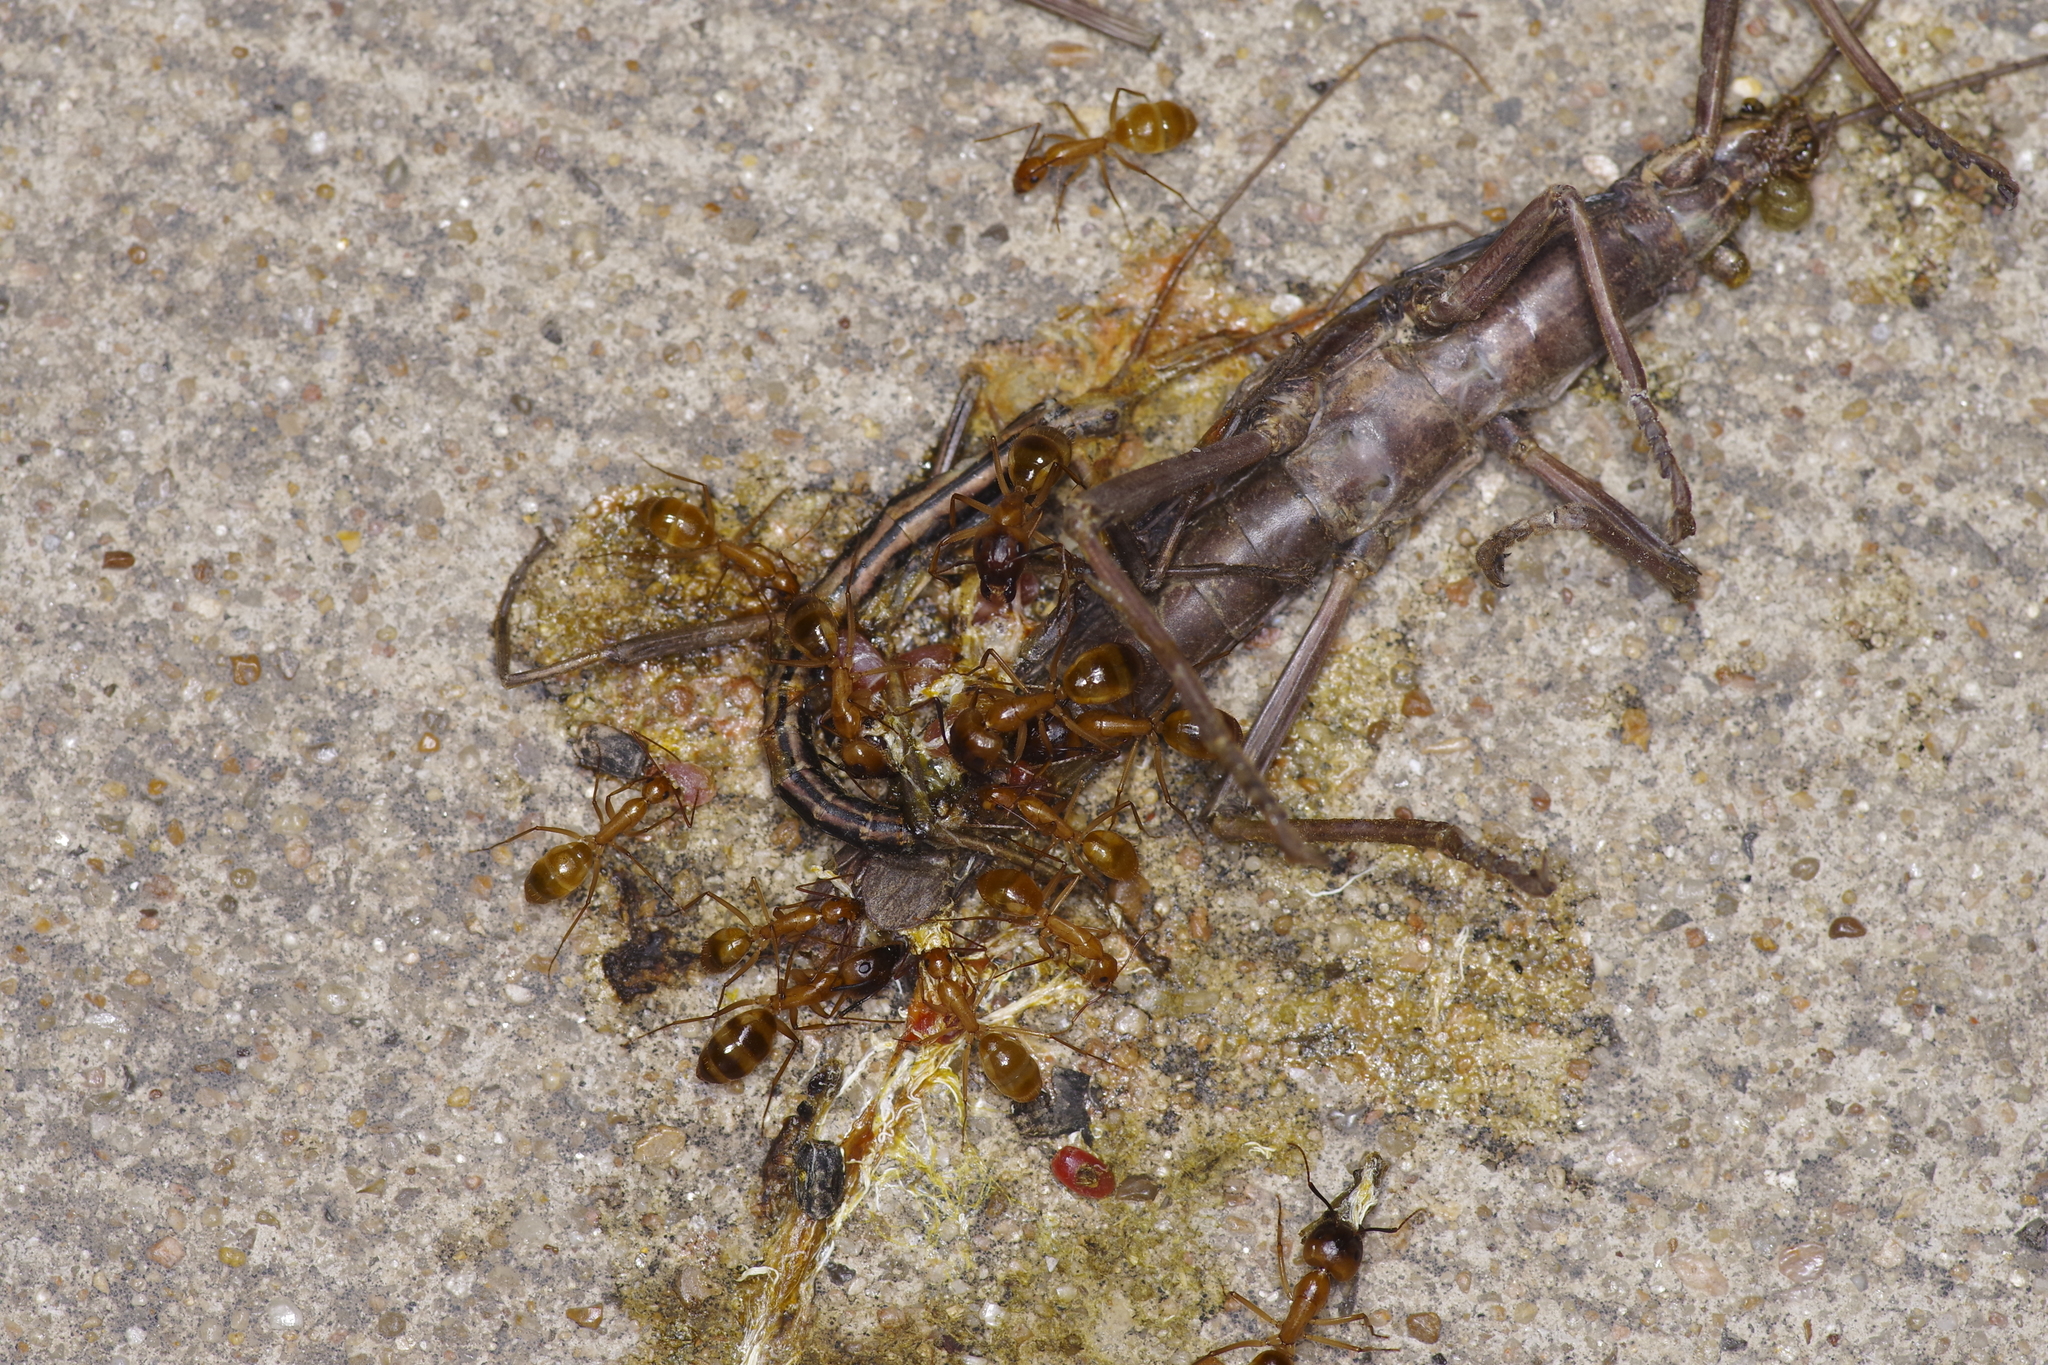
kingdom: Animalia
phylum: Arthropoda
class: Insecta
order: Hymenoptera
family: Formicidae
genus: Camponotus
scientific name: Camponotus festinatus
